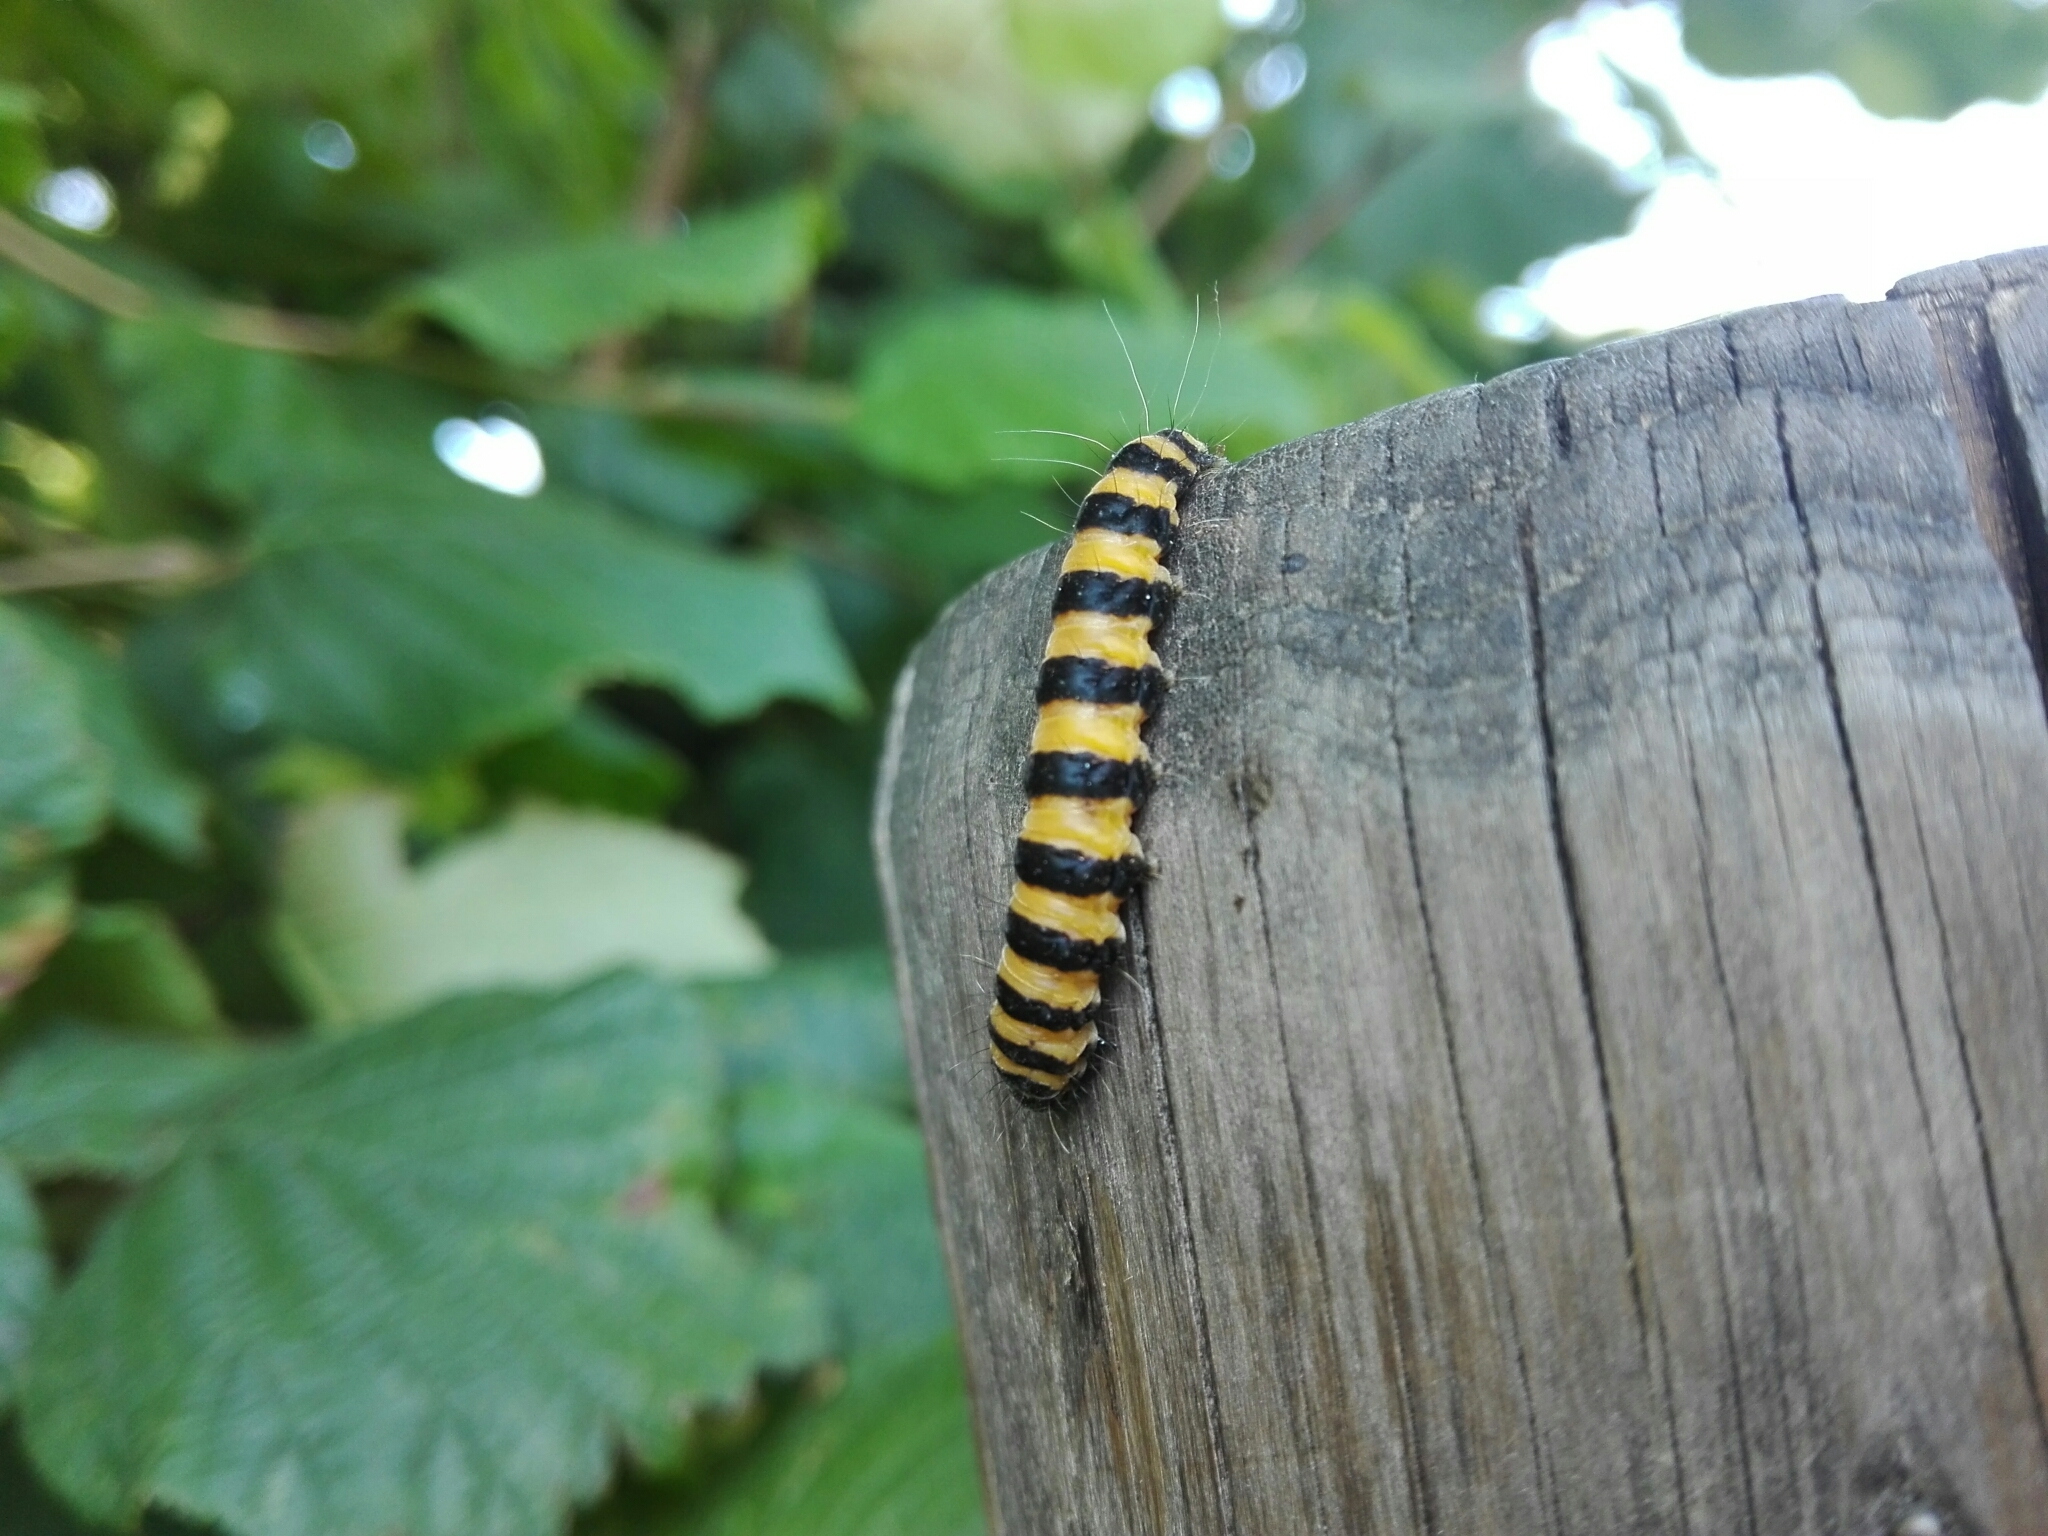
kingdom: Animalia
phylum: Arthropoda
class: Insecta
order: Lepidoptera
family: Erebidae
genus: Tyria
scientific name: Tyria jacobaeae
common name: Cinnabar
